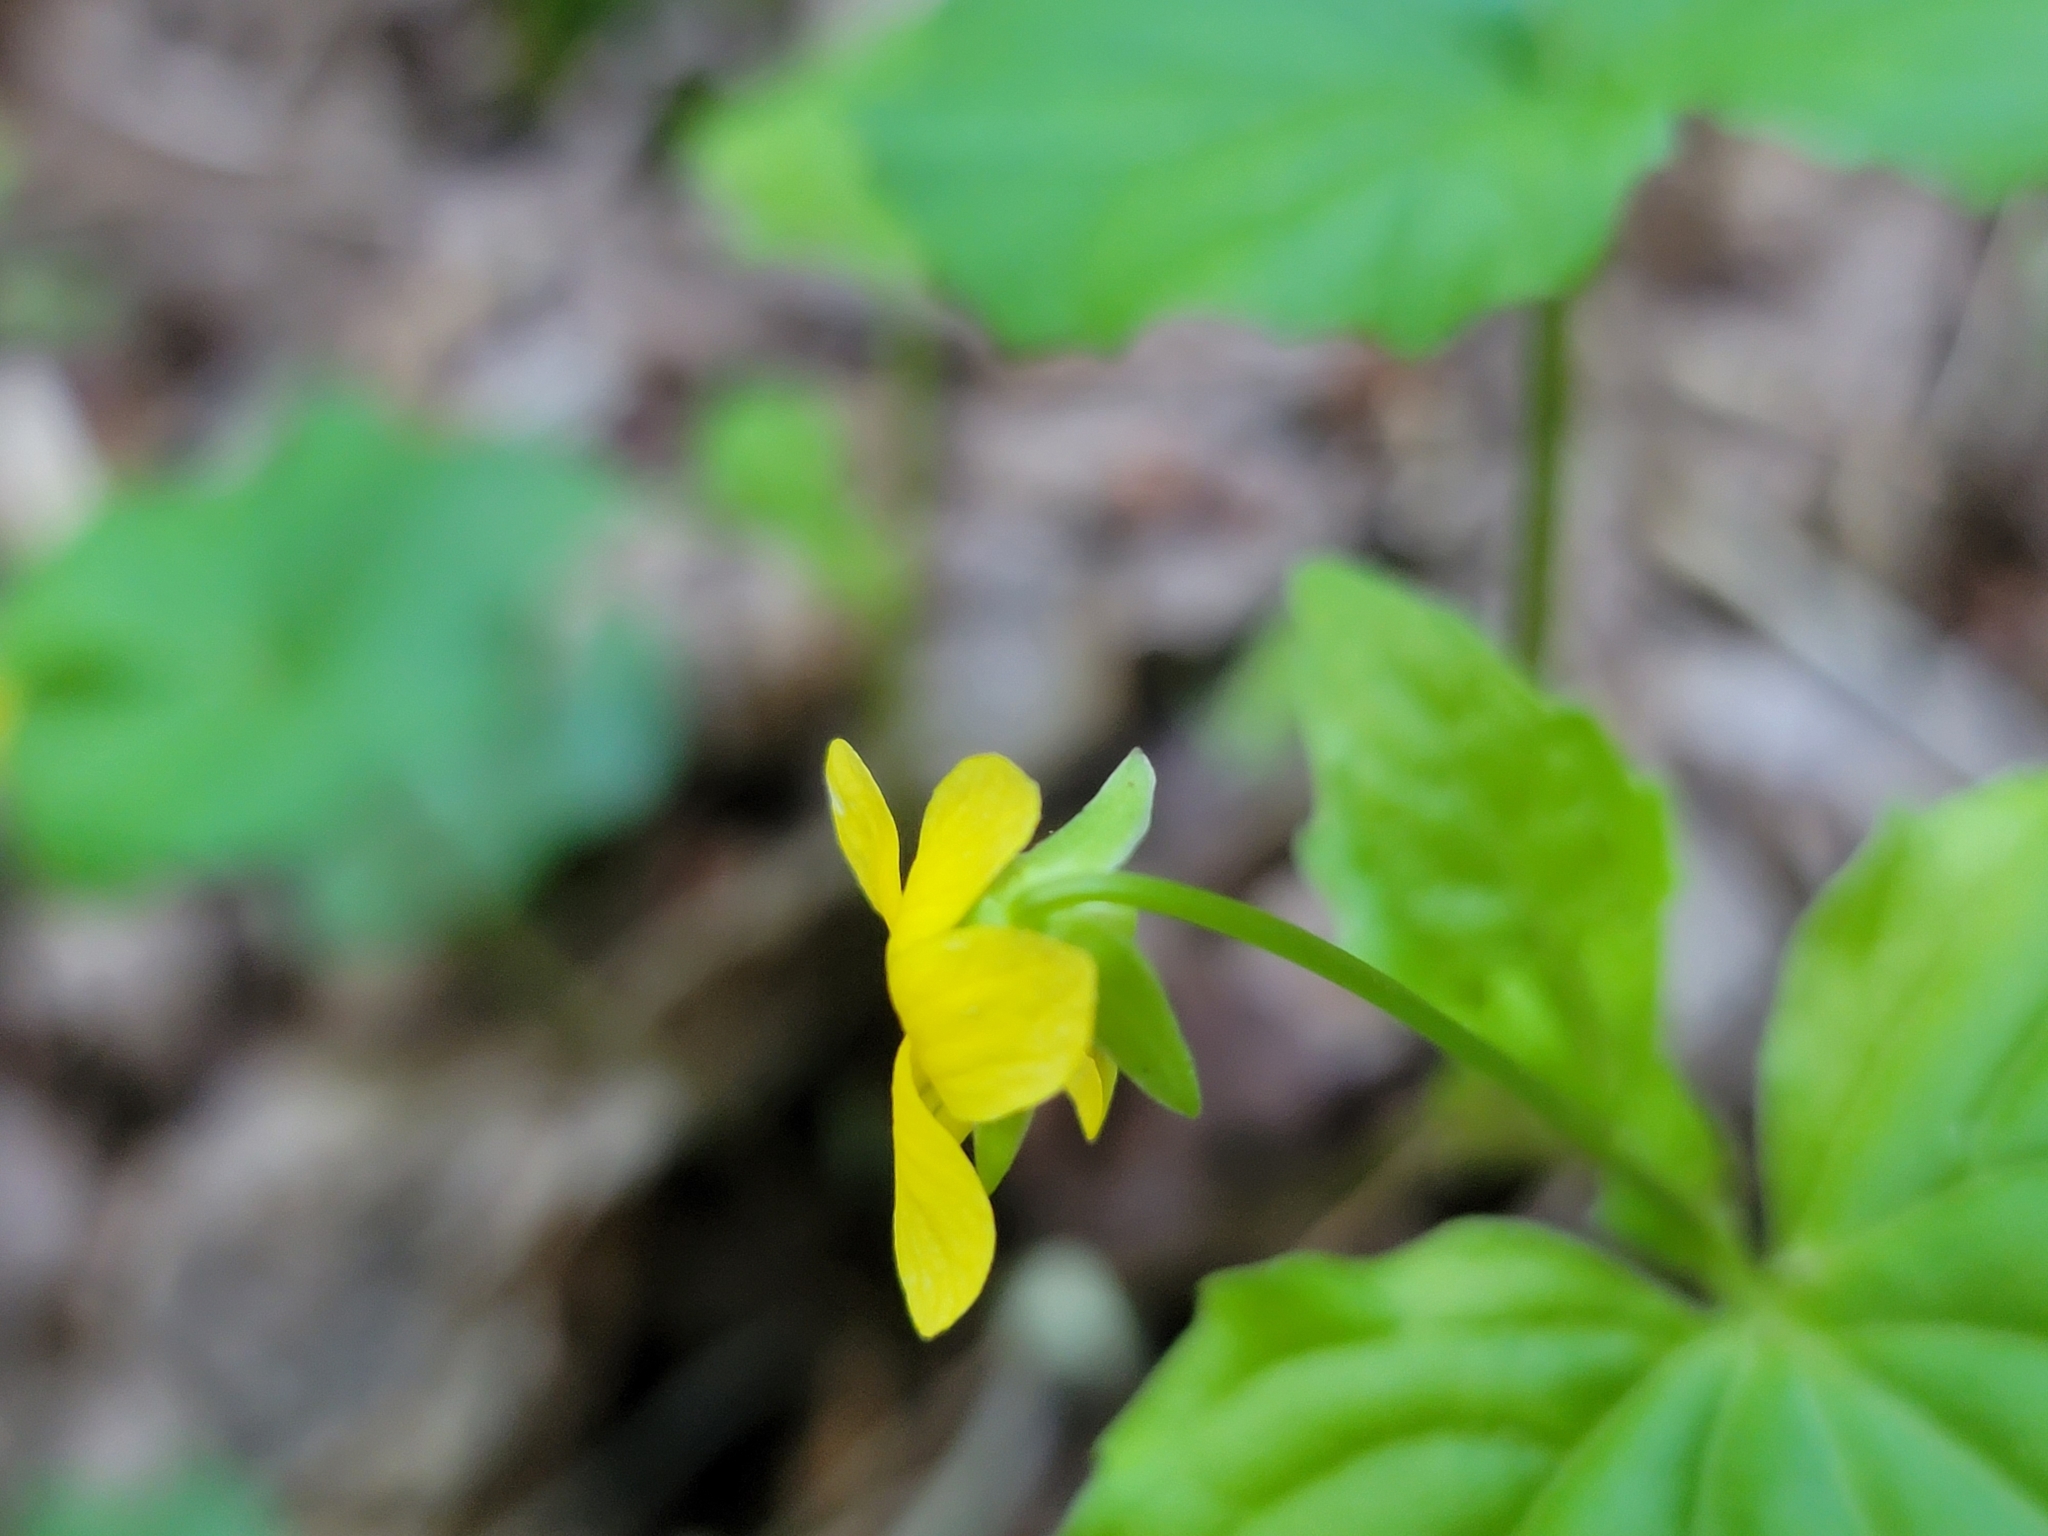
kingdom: Plantae
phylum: Tracheophyta
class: Magnoliopsida
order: Malpighiales
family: Violaceae
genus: Viola
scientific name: Viola eriocarpa
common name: Smooth yellow violet
